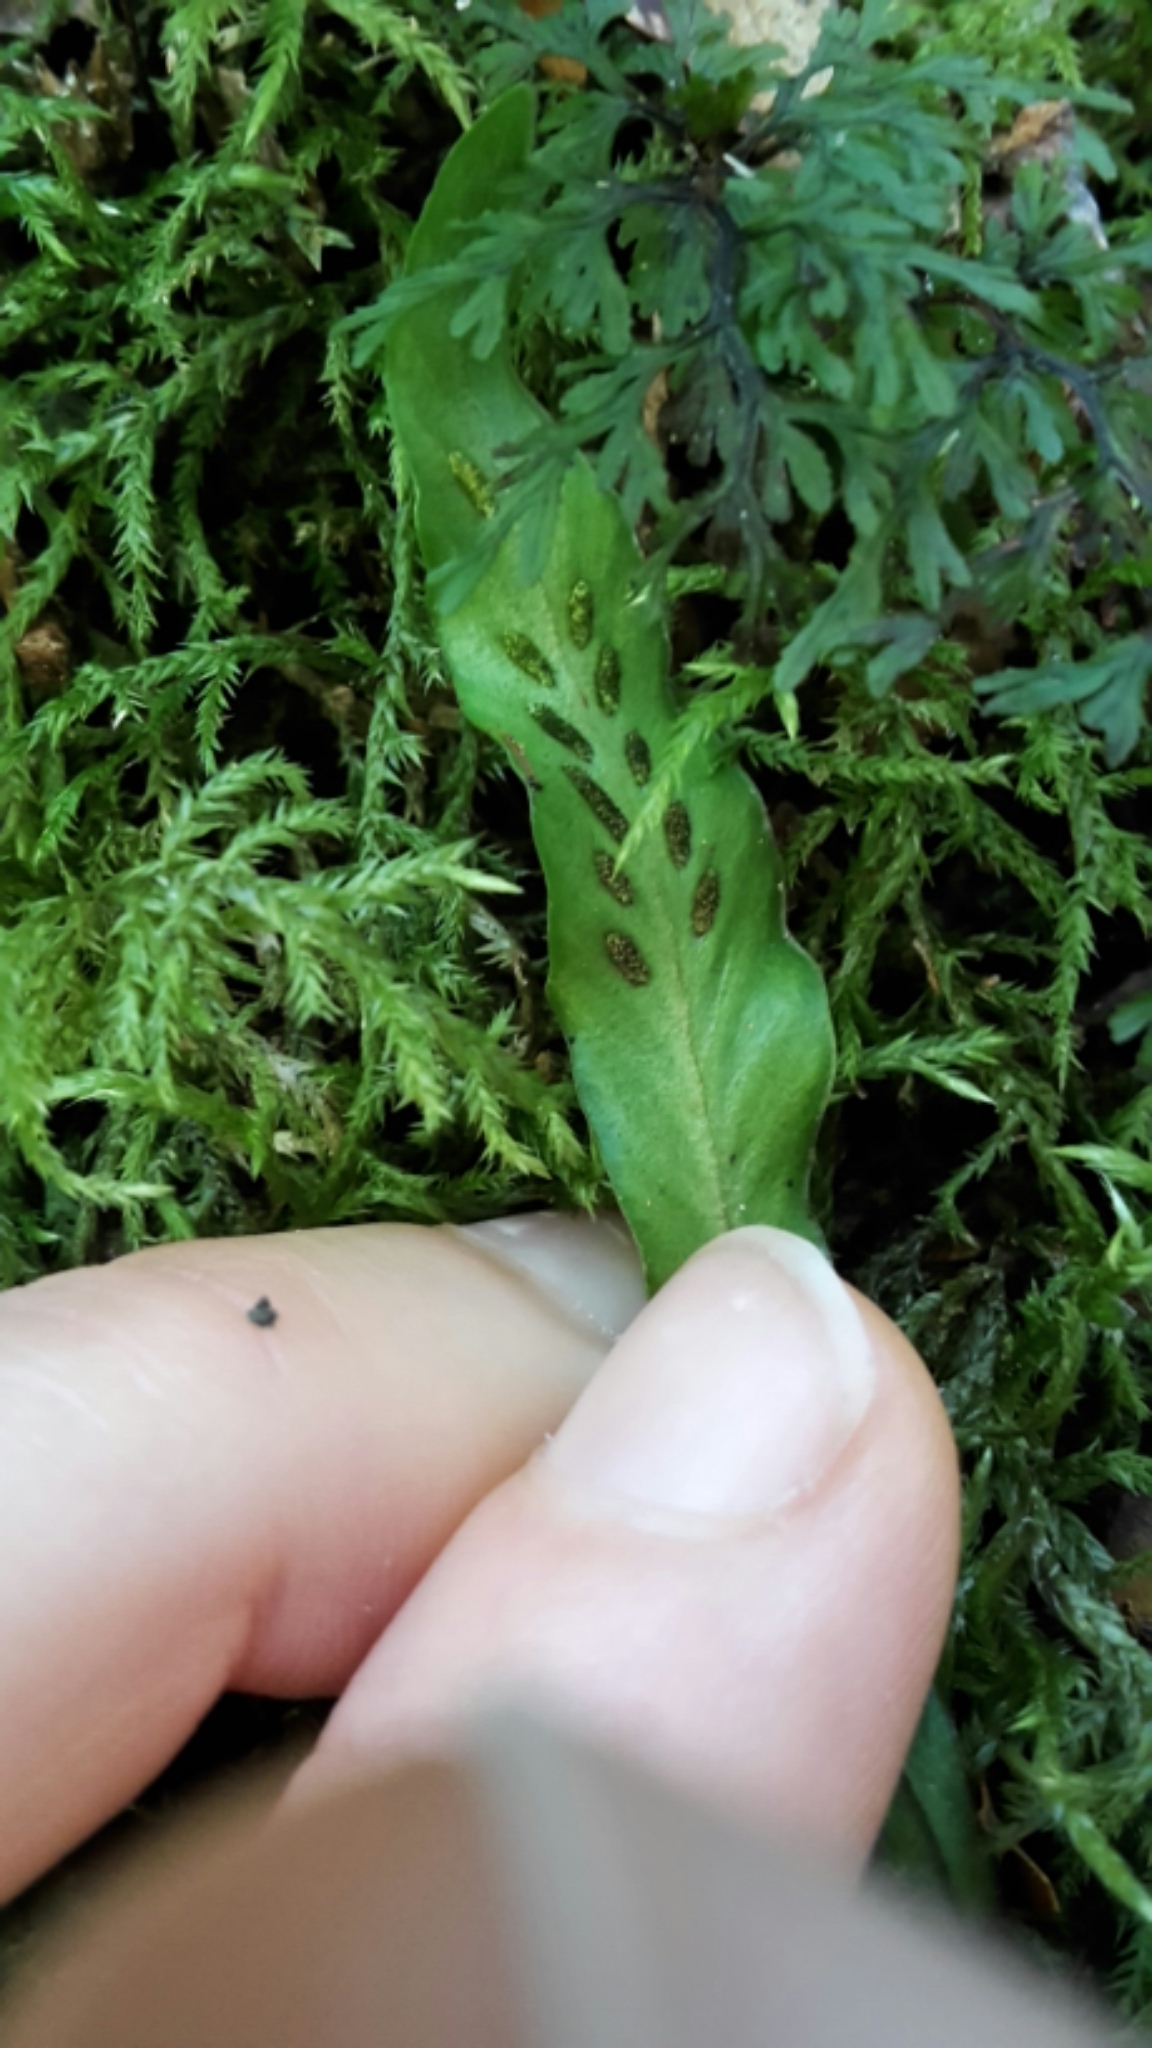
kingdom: Plantae
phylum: Tracheophyta
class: Polypodiopsida
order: Polypodiales
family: Polypodiaceae
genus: Notogrammitis
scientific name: Notogrammitis billardierei
